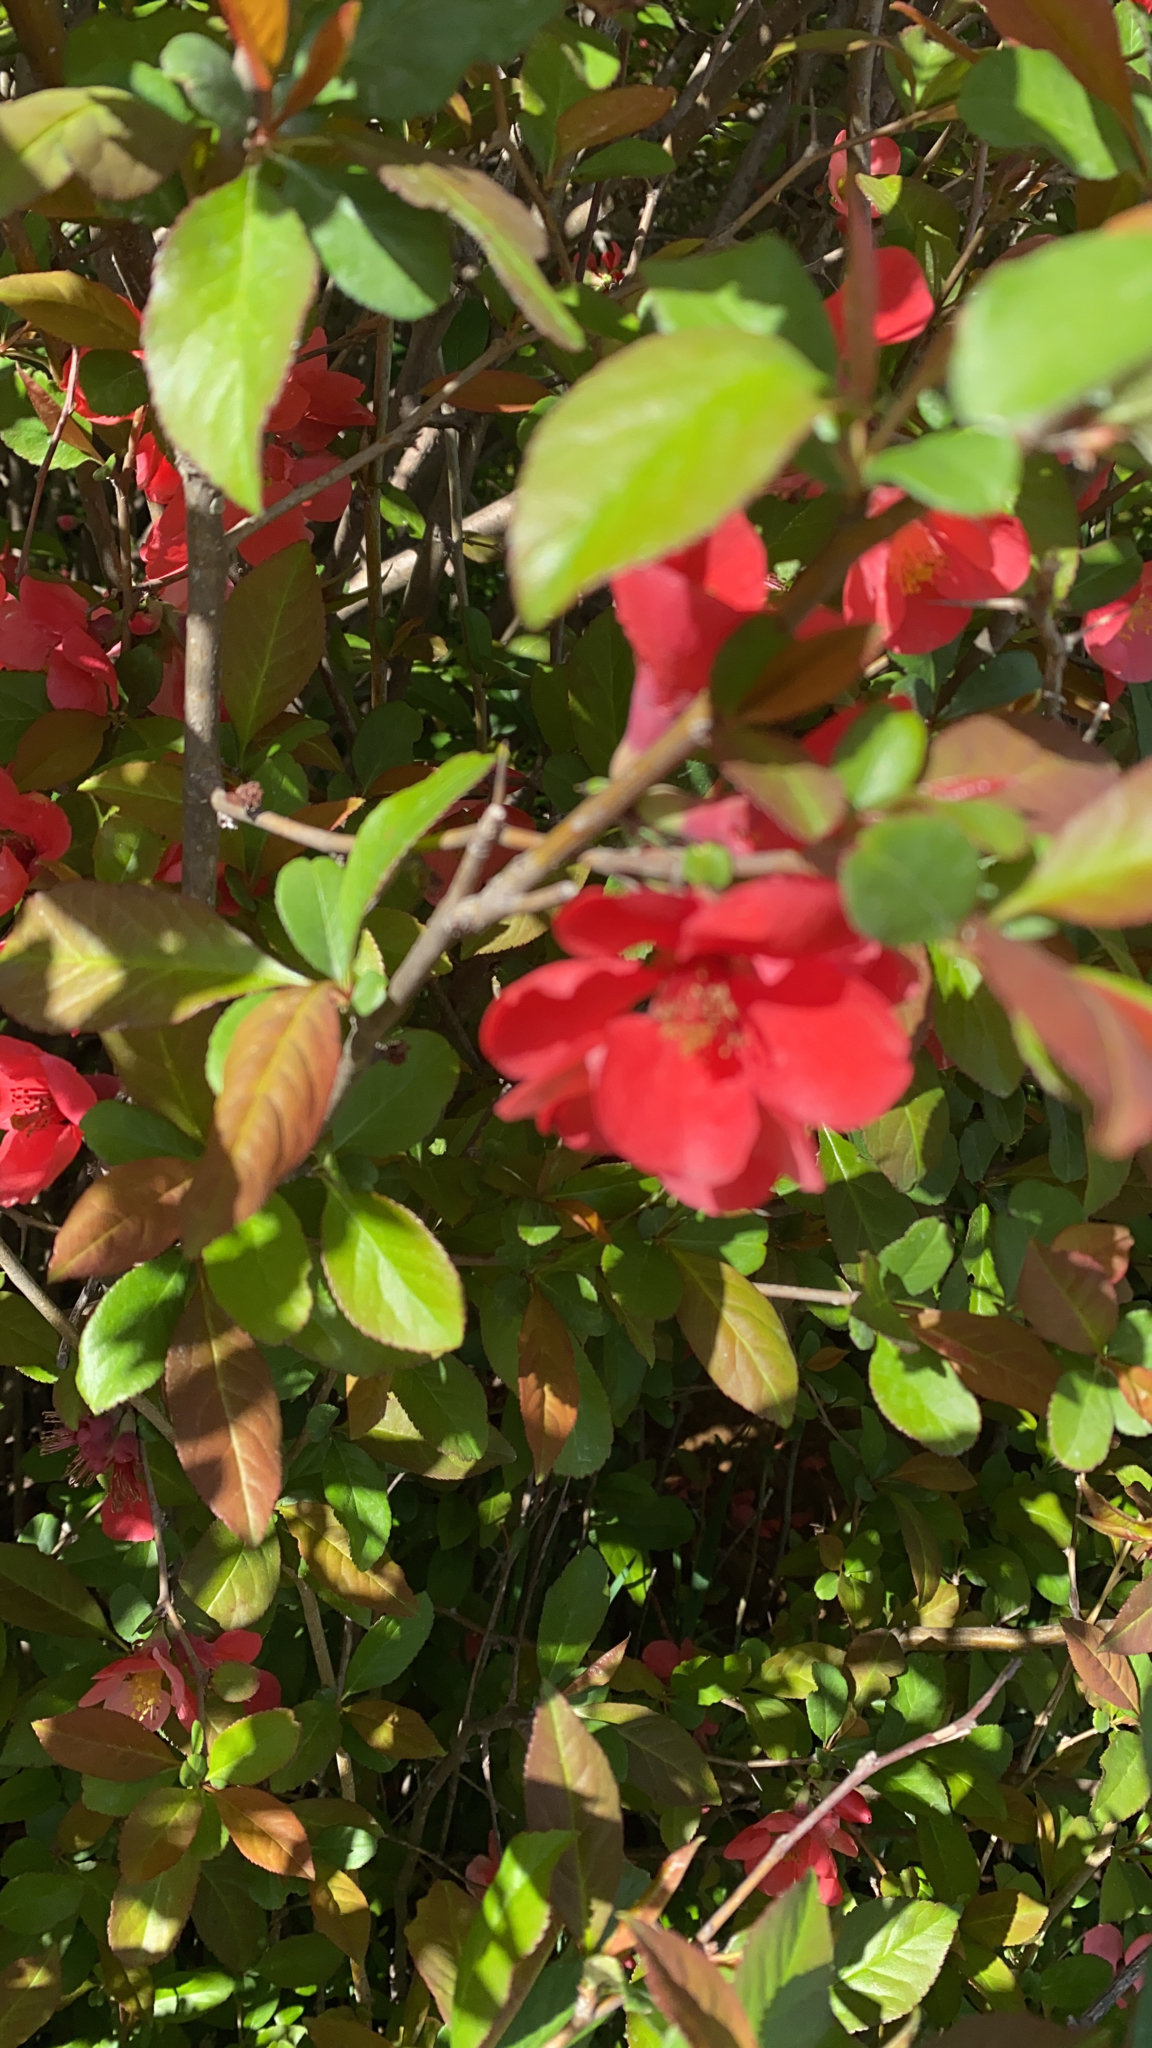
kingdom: Plantae
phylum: Tracheophyta
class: Magnoliopsida
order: Rosales
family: Rosaceae
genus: Chaenomeles
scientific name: Chaenomeles speciosa
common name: Japanese quince
